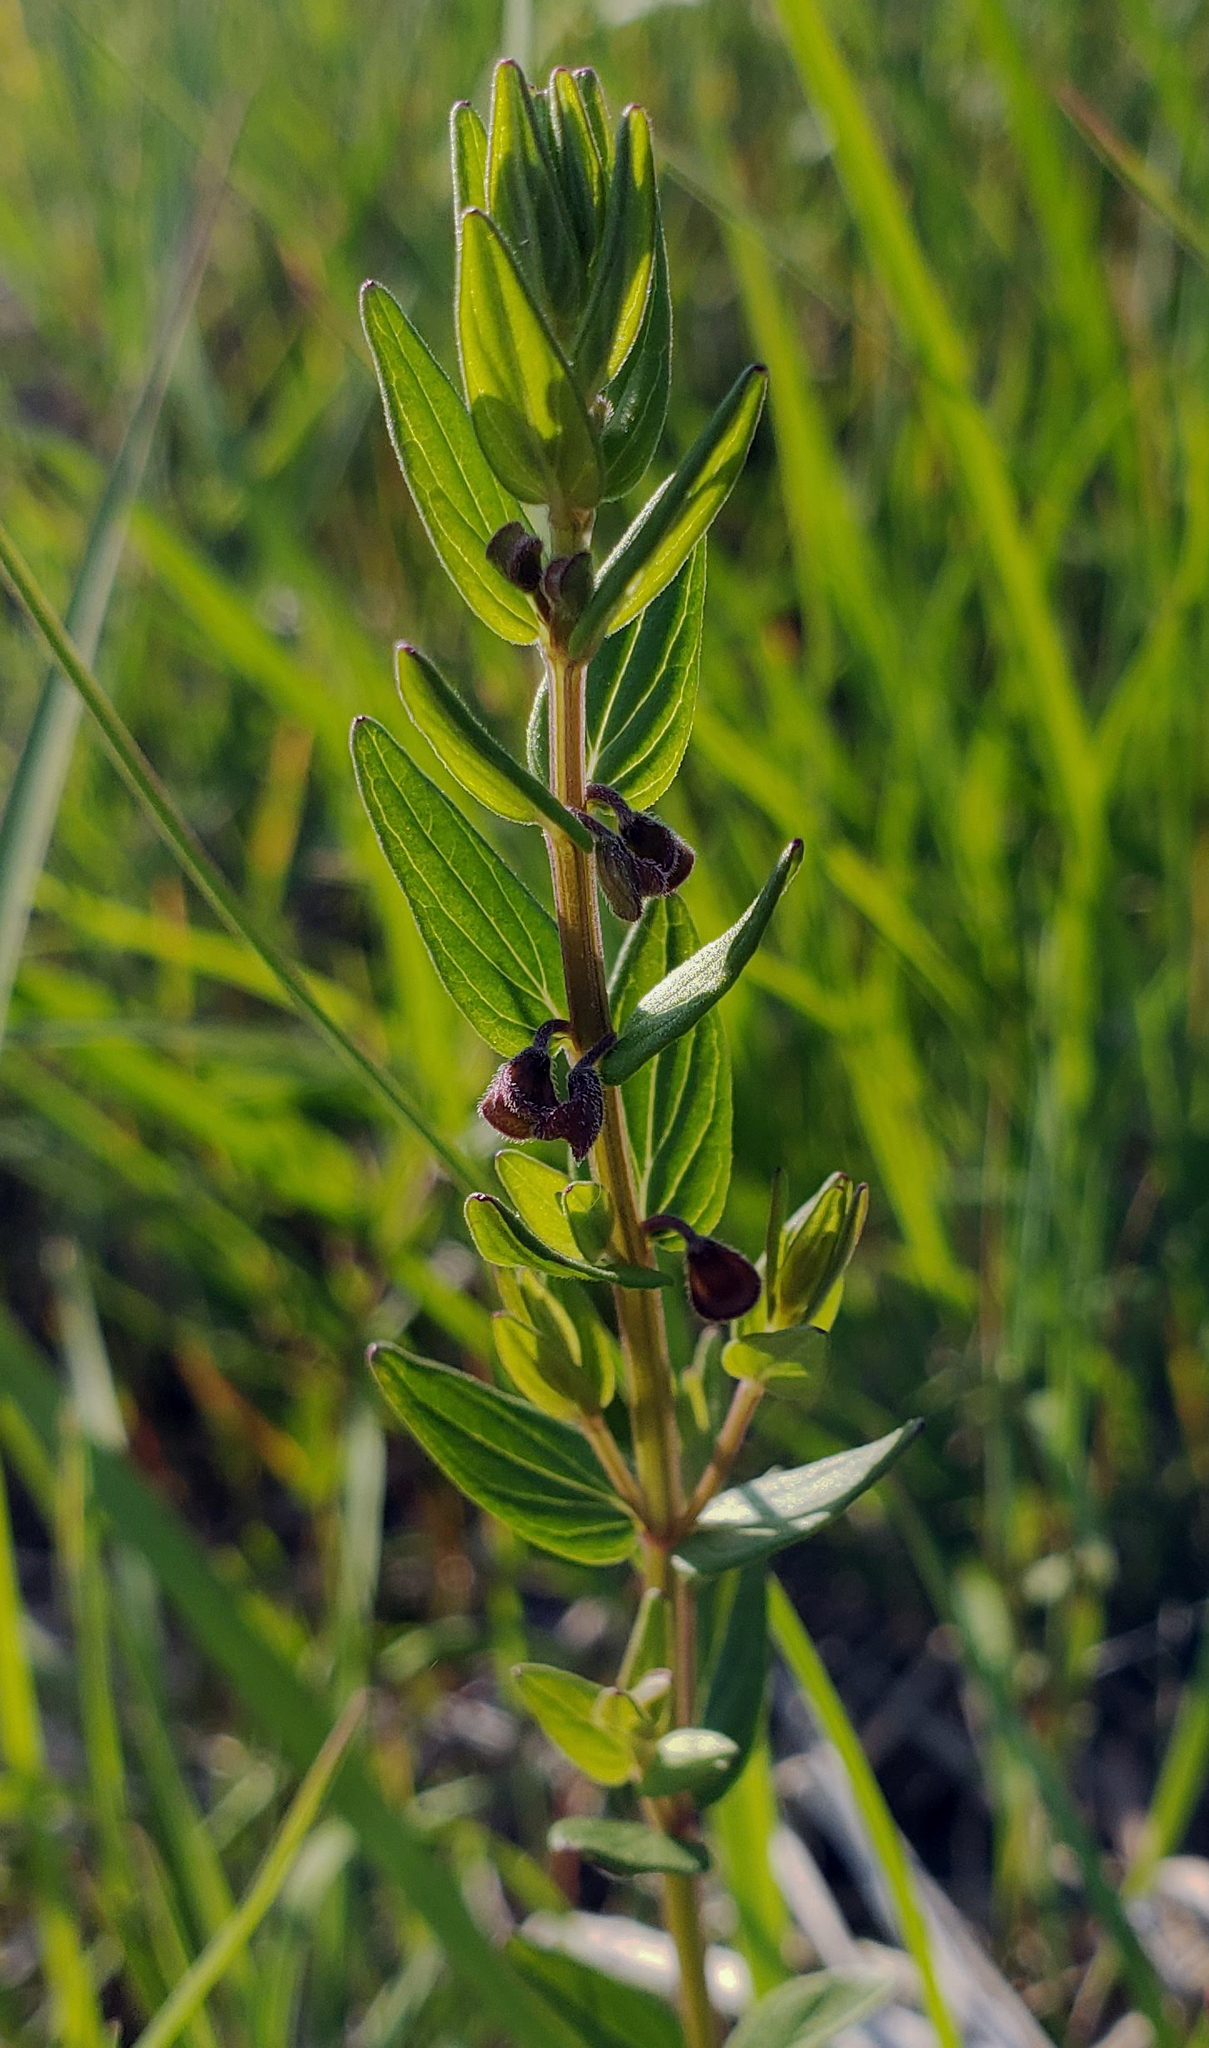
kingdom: Plantae
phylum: Tracheophyta
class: Magnoliopsida
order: Lamiales
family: Lamiaceae
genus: Scutellaria
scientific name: Scutellaria parvula
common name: Little scullcap
